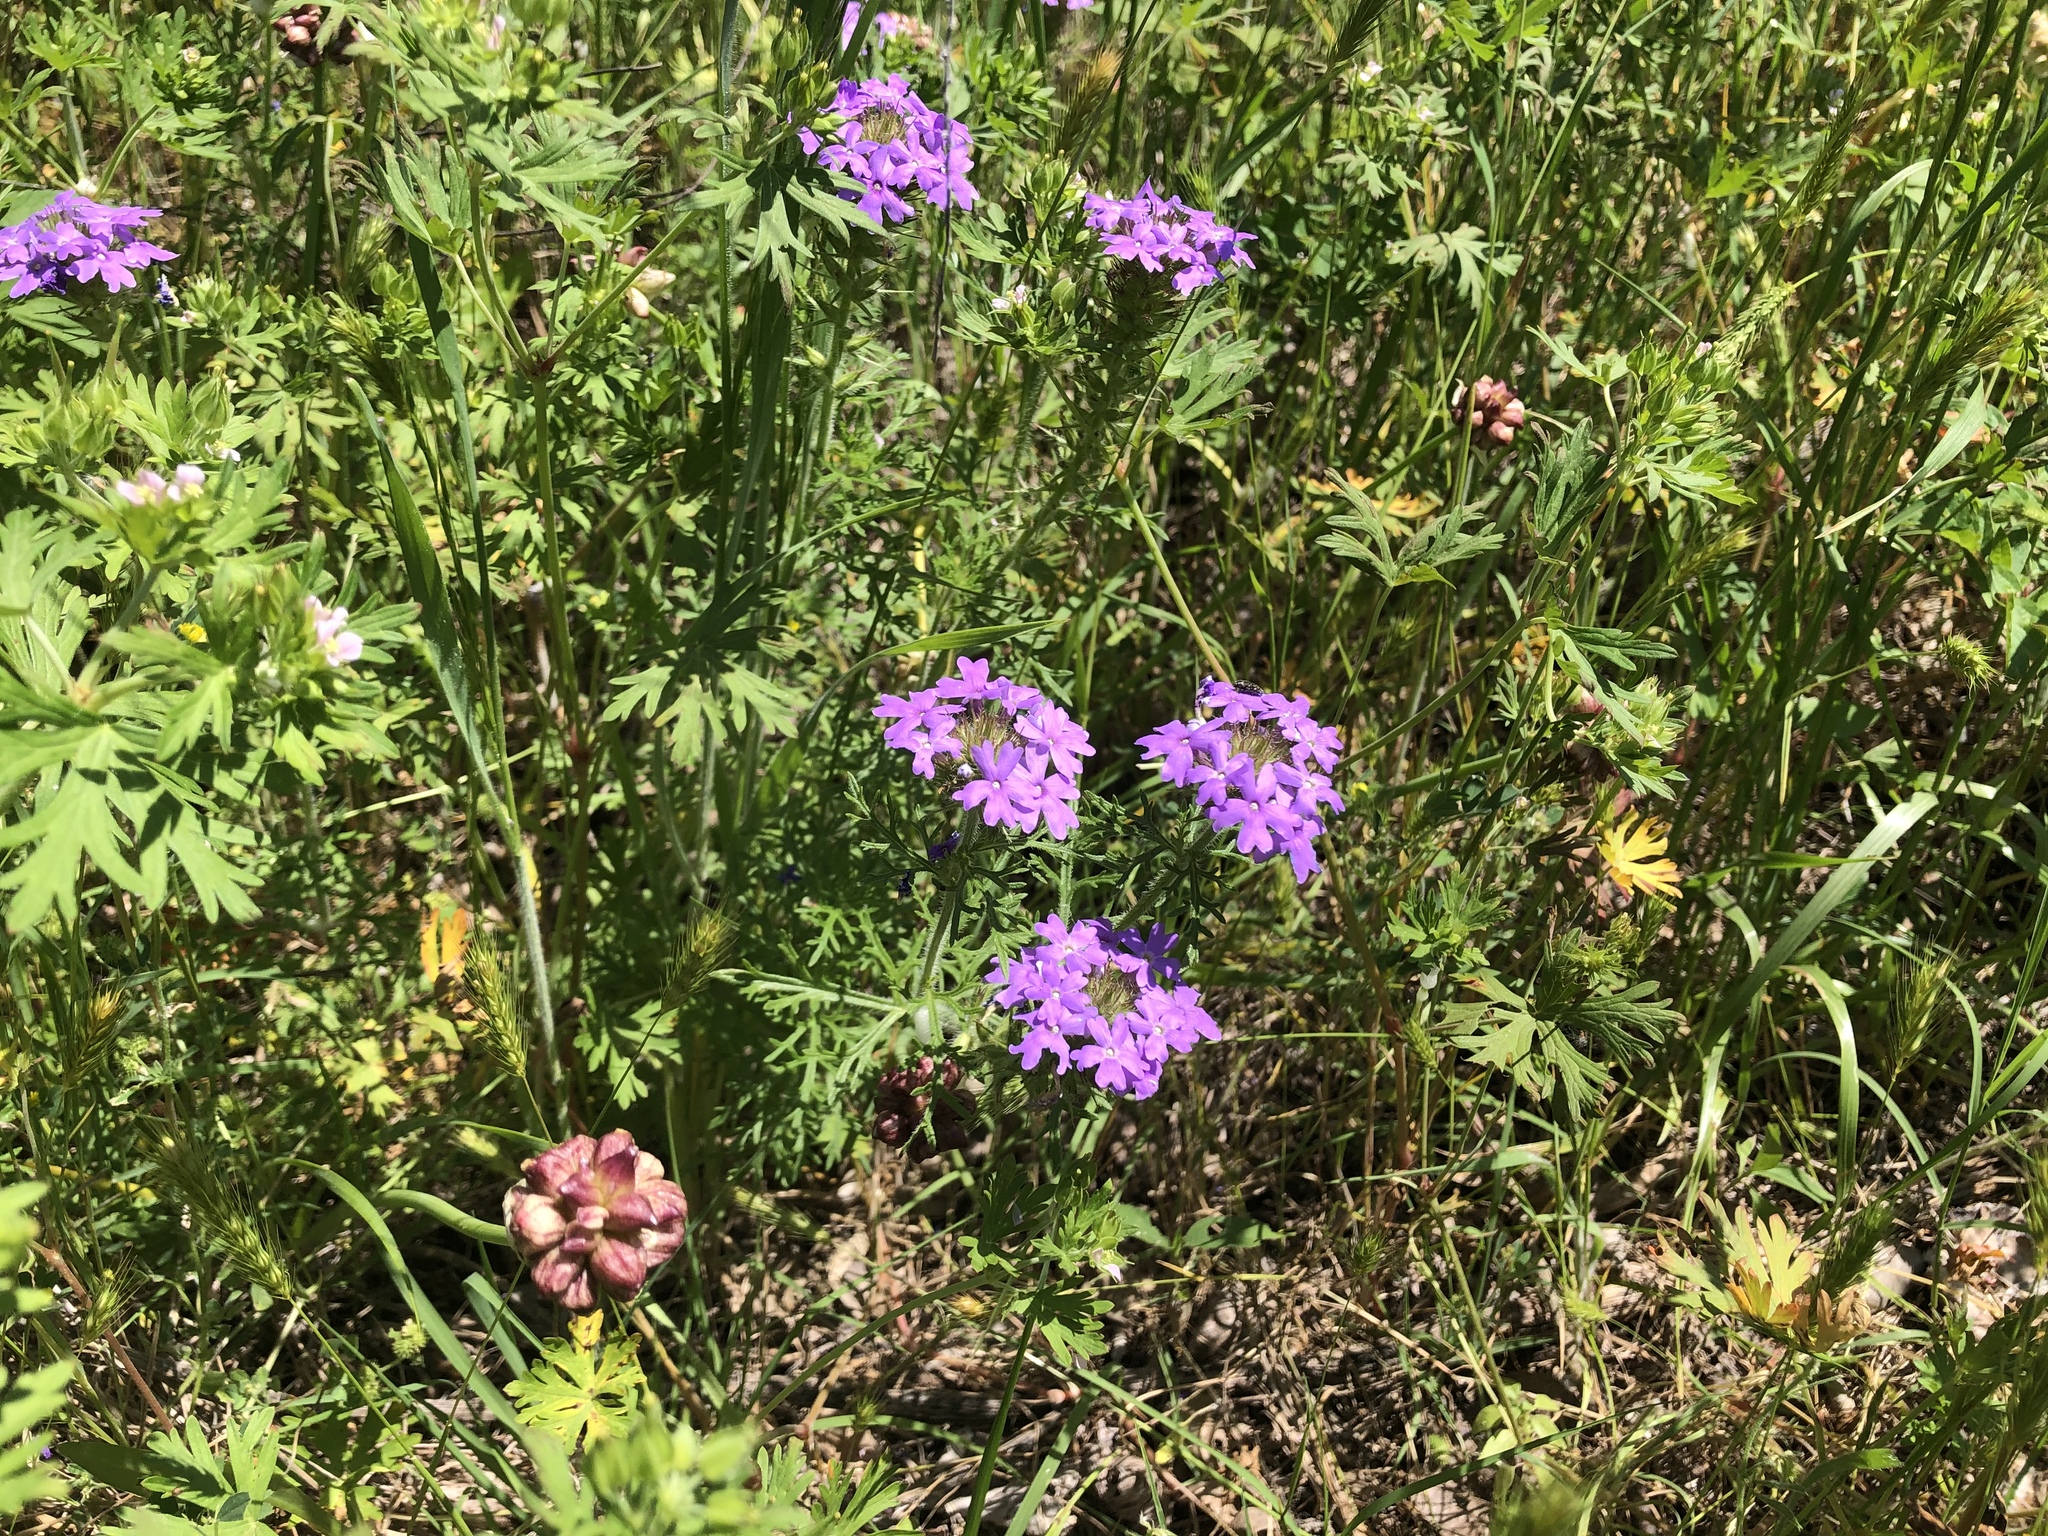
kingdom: Plantae
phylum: Tracheophyta
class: Magnoliopsida
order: Lamiales
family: Verbenaceae
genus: Verbena
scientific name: Verbena bipinnatifida
